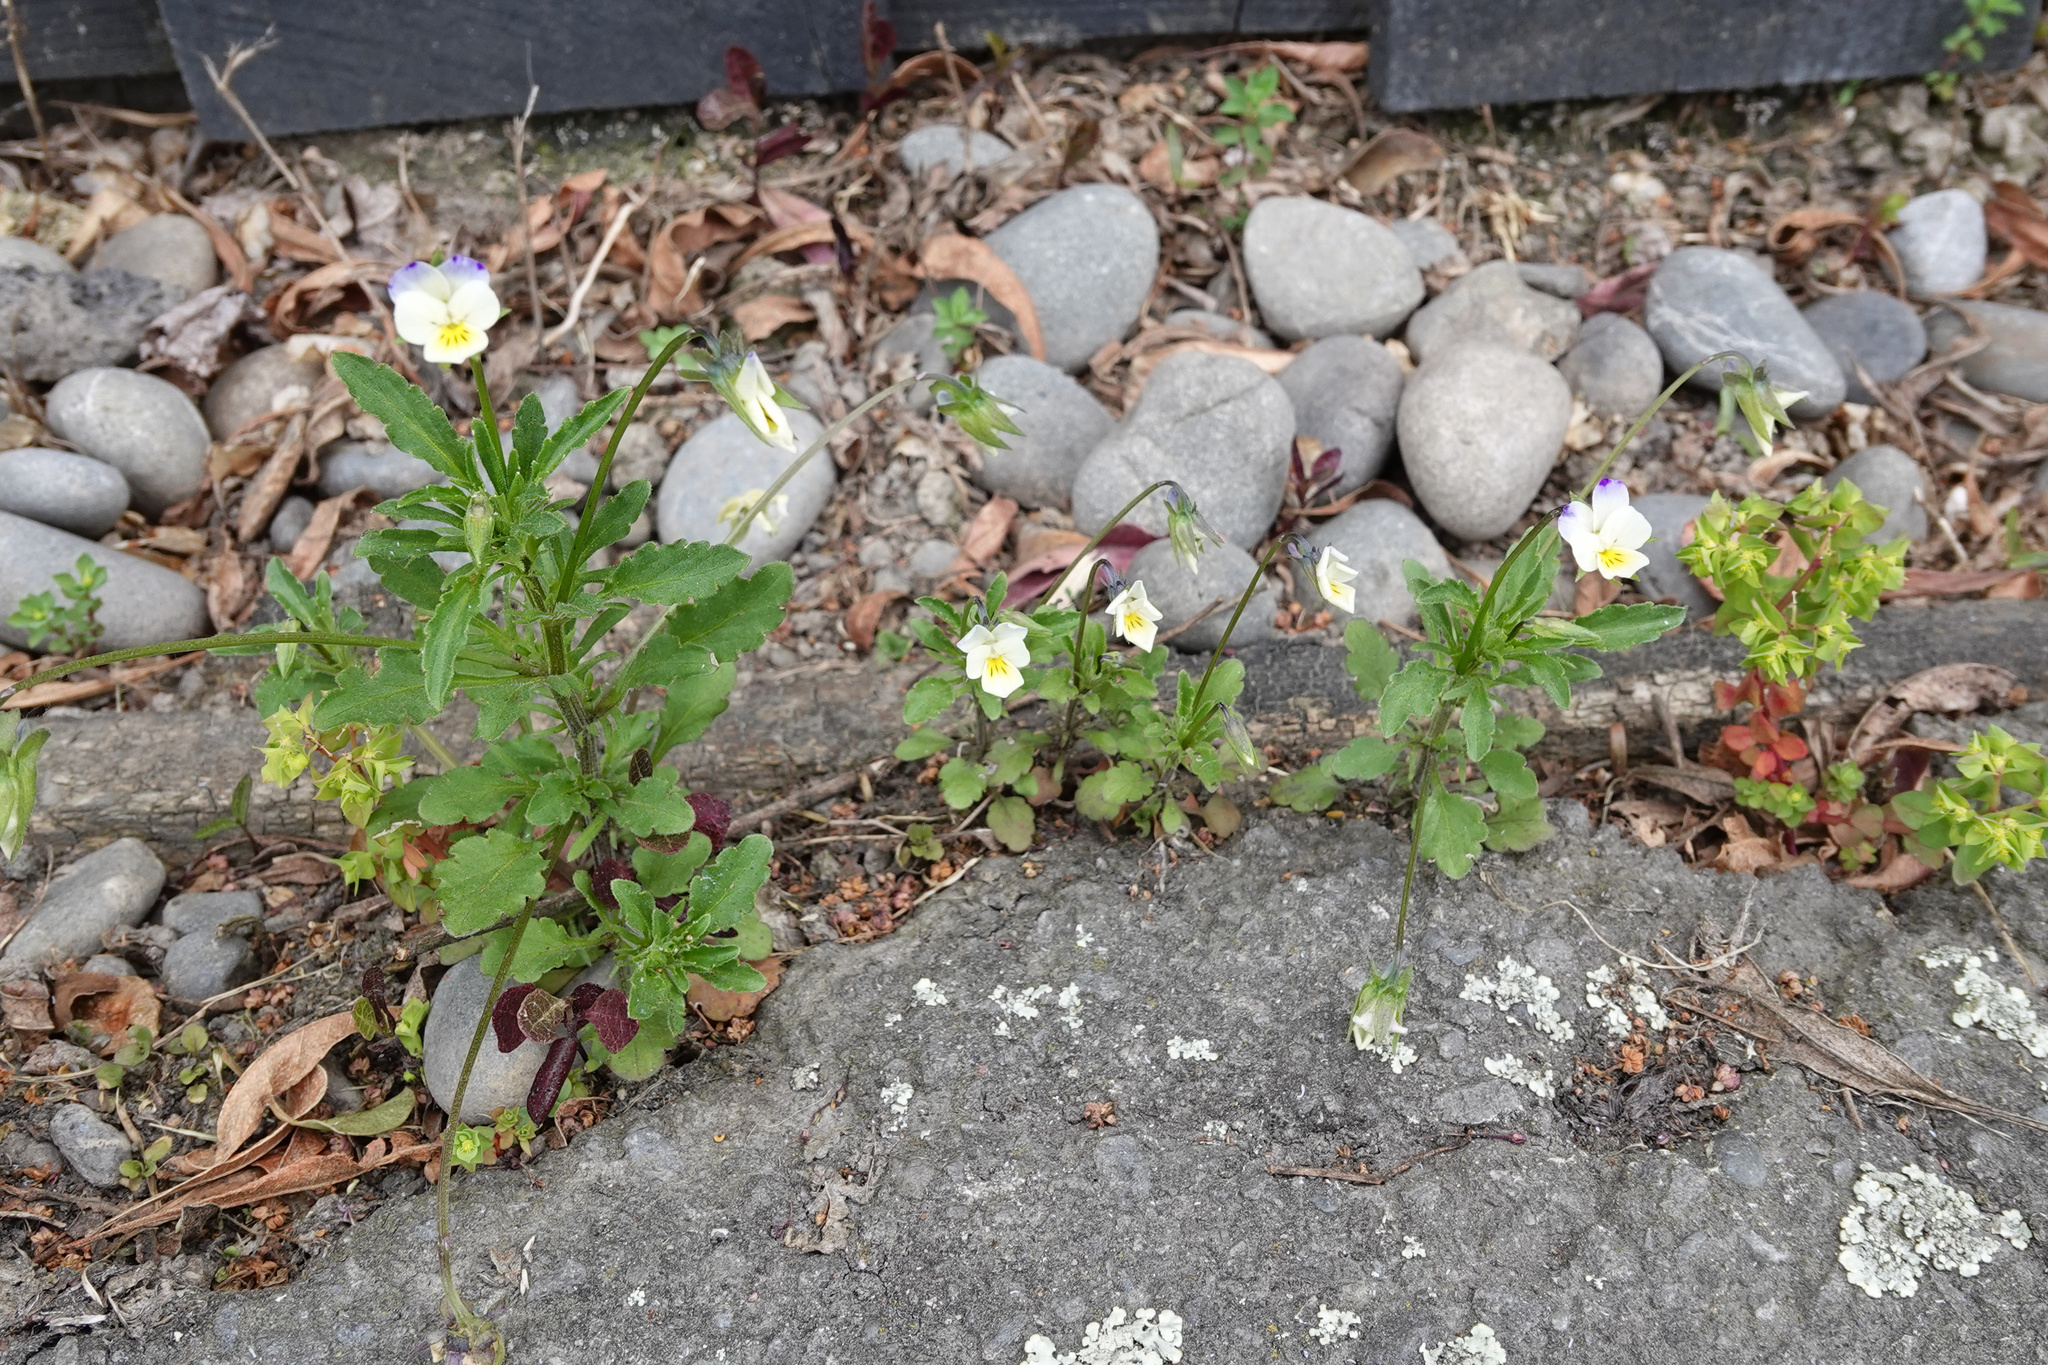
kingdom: Plantae
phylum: Tracheophyta
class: Magnoliopsida
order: Malpighiales
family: Violaceae
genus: Viola
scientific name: Viola arvensis
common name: Field pansy
